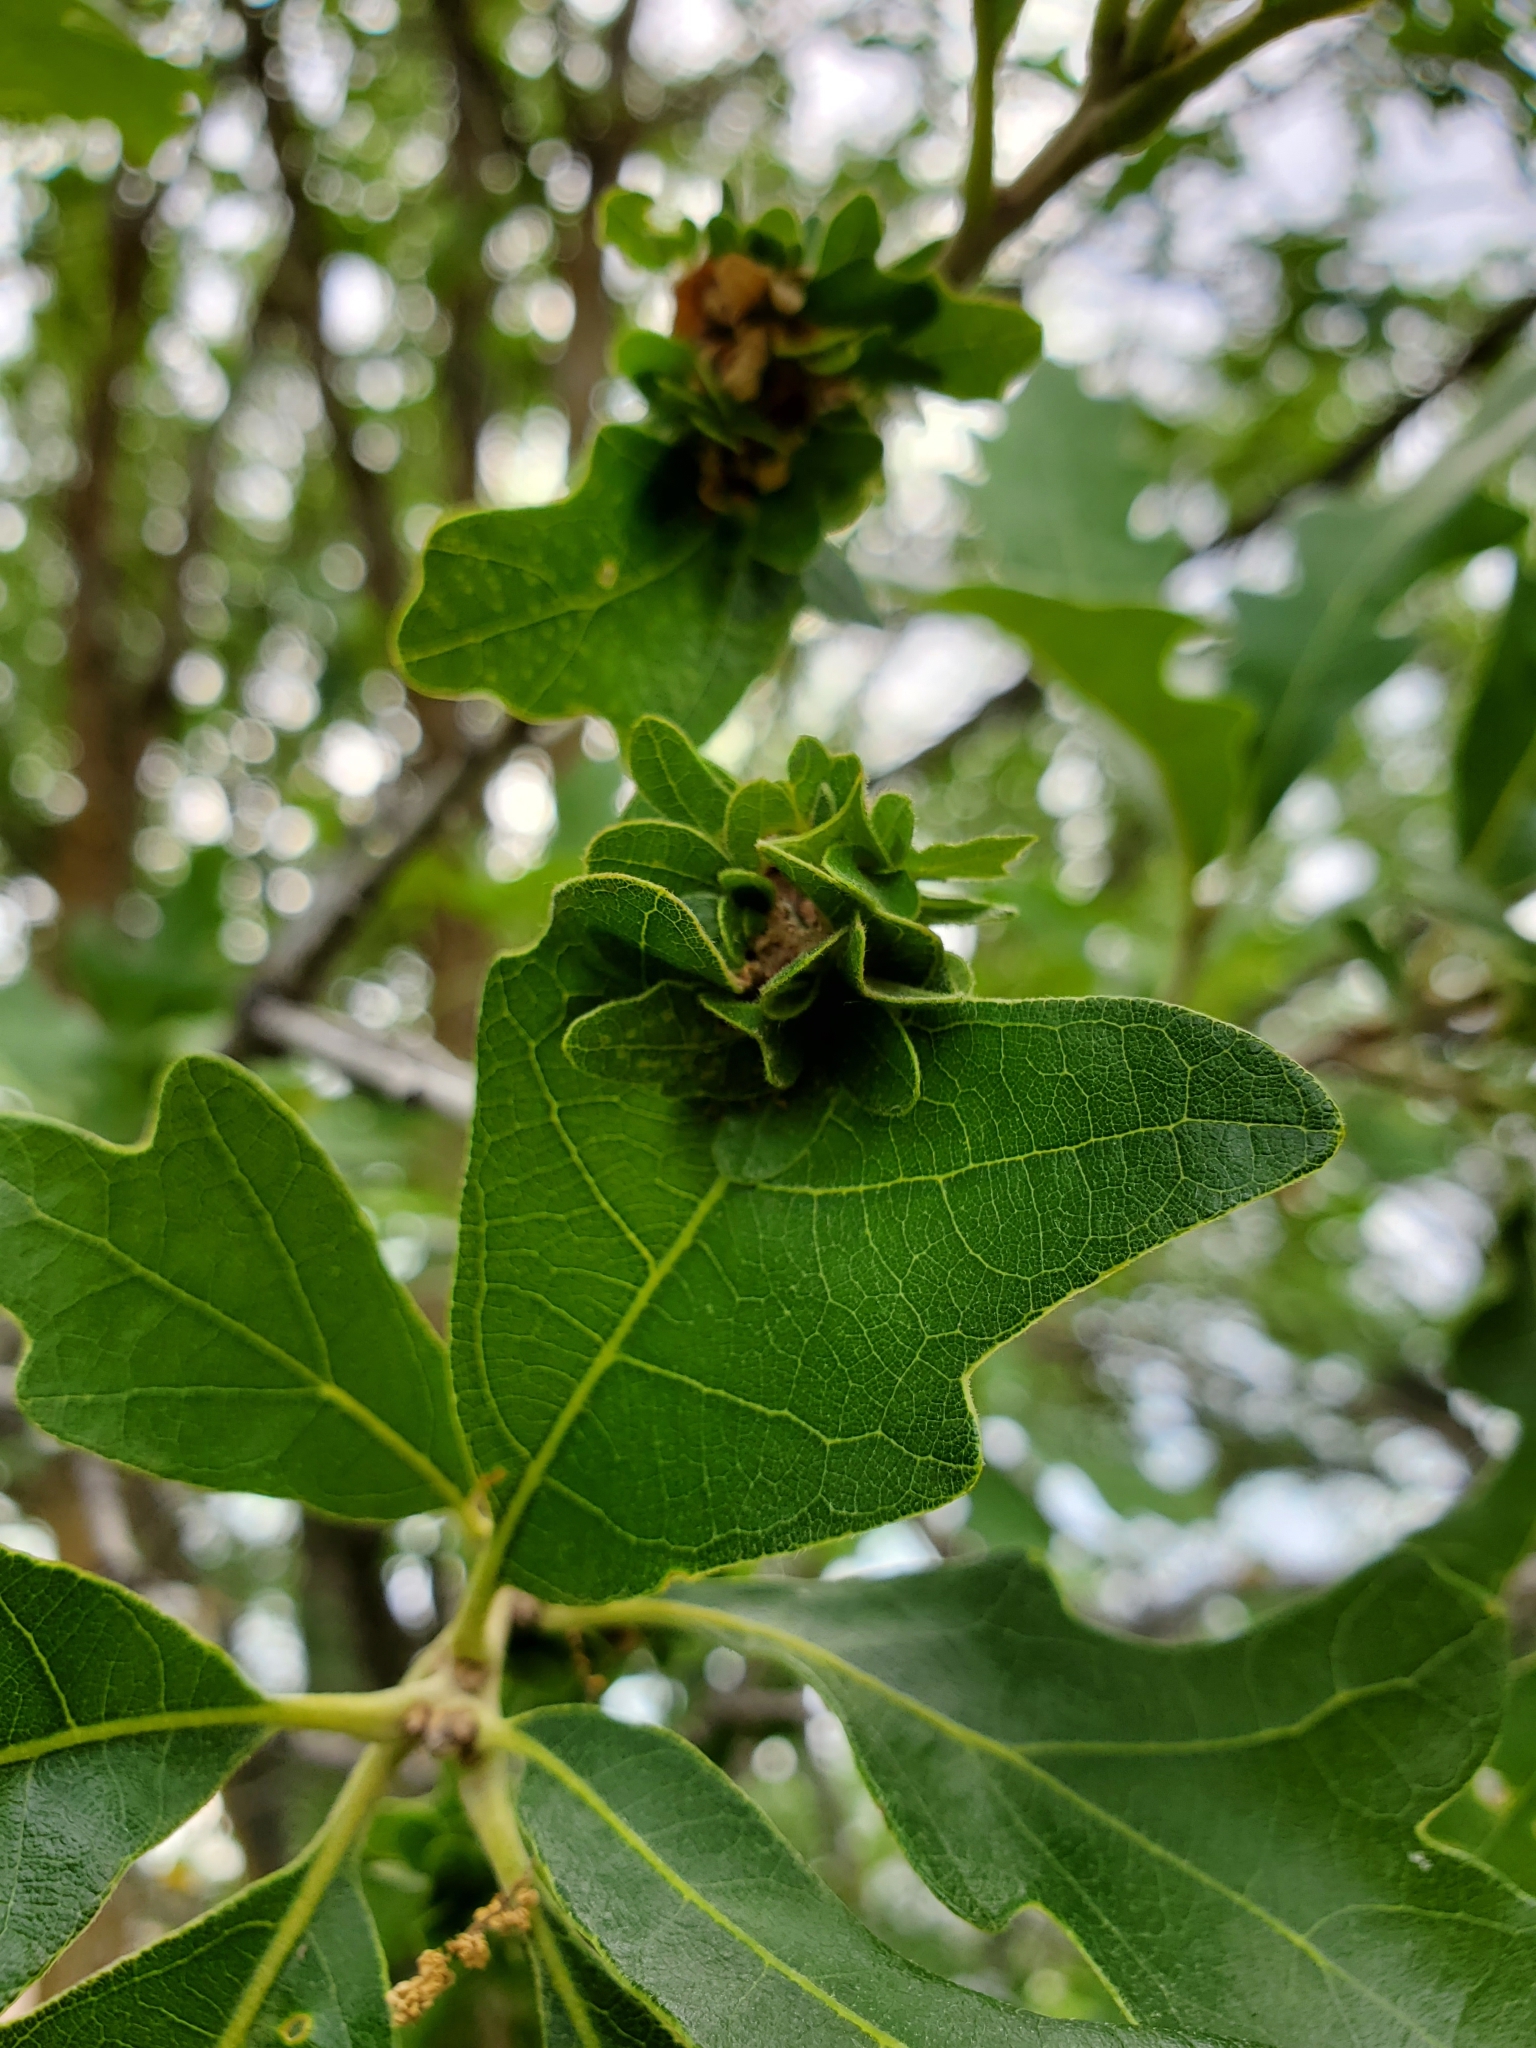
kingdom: Animalia
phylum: Arthropoda
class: Insecta
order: Hymenoptera
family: Cynipidae
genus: Andricus
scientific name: Andricus
